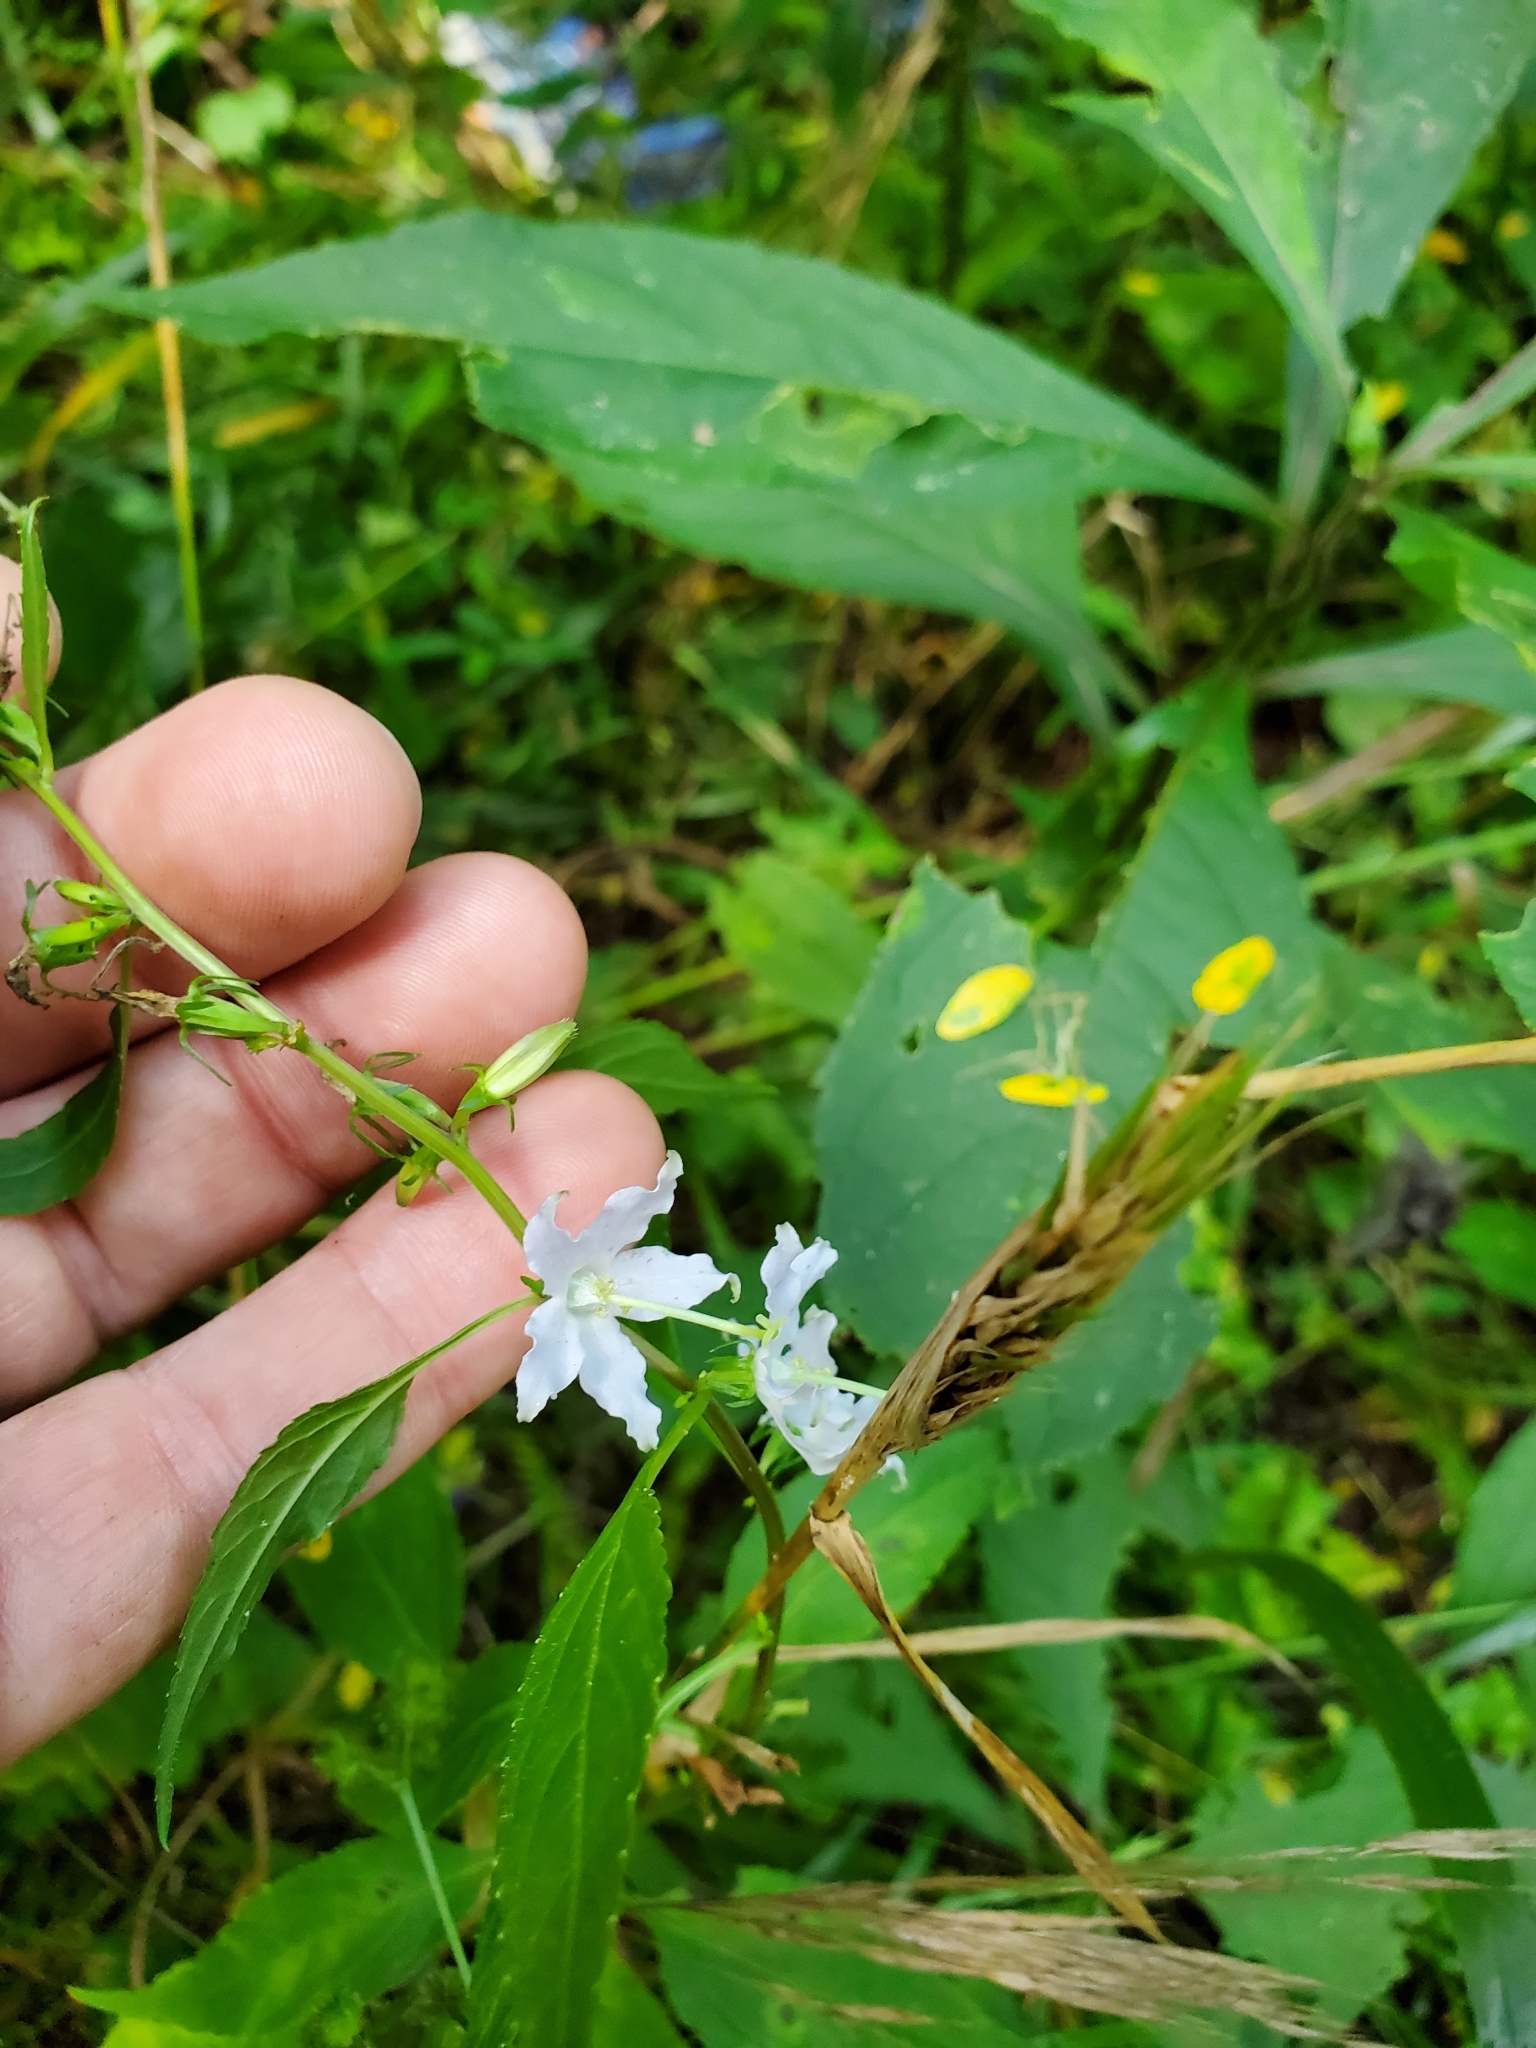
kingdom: Plantae
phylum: Tracheophyta
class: Magnoliopsida
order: Asterales
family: Campanulaceae
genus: Campanulastrum
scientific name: Campanulastrum americanum
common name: American bellflower
